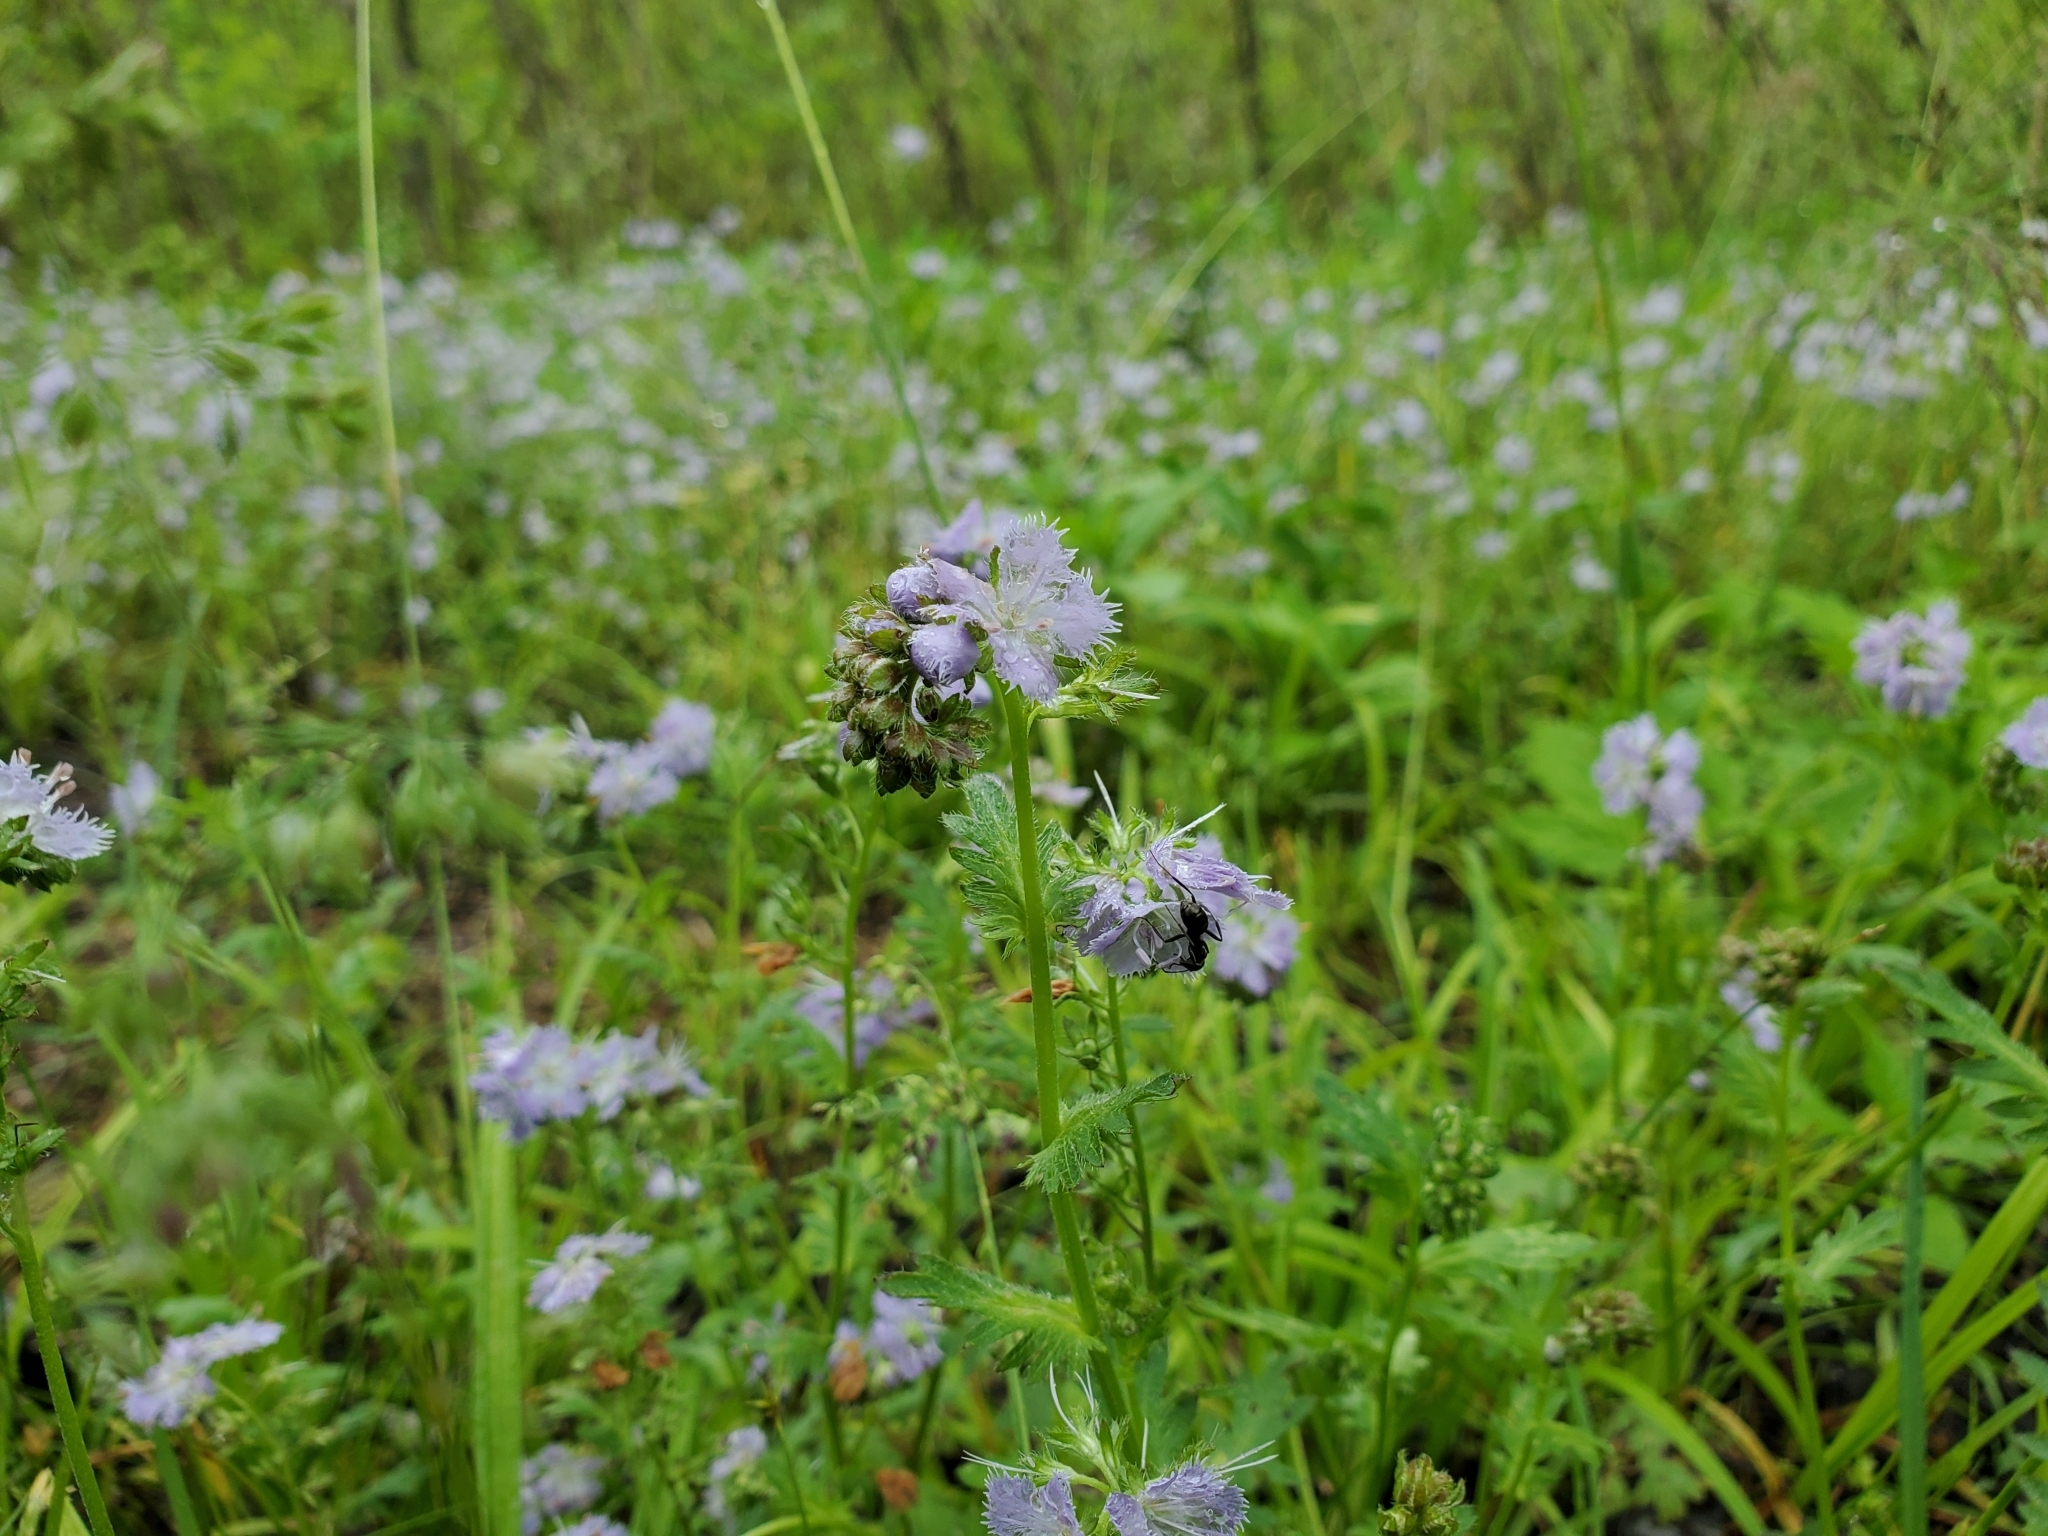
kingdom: Plantae
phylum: Tracheophyta
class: Magnoliopsida
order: Boraginales
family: Hydrophyllaceae
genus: Phacelia
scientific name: Phacelia purshii
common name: Miami-mist
